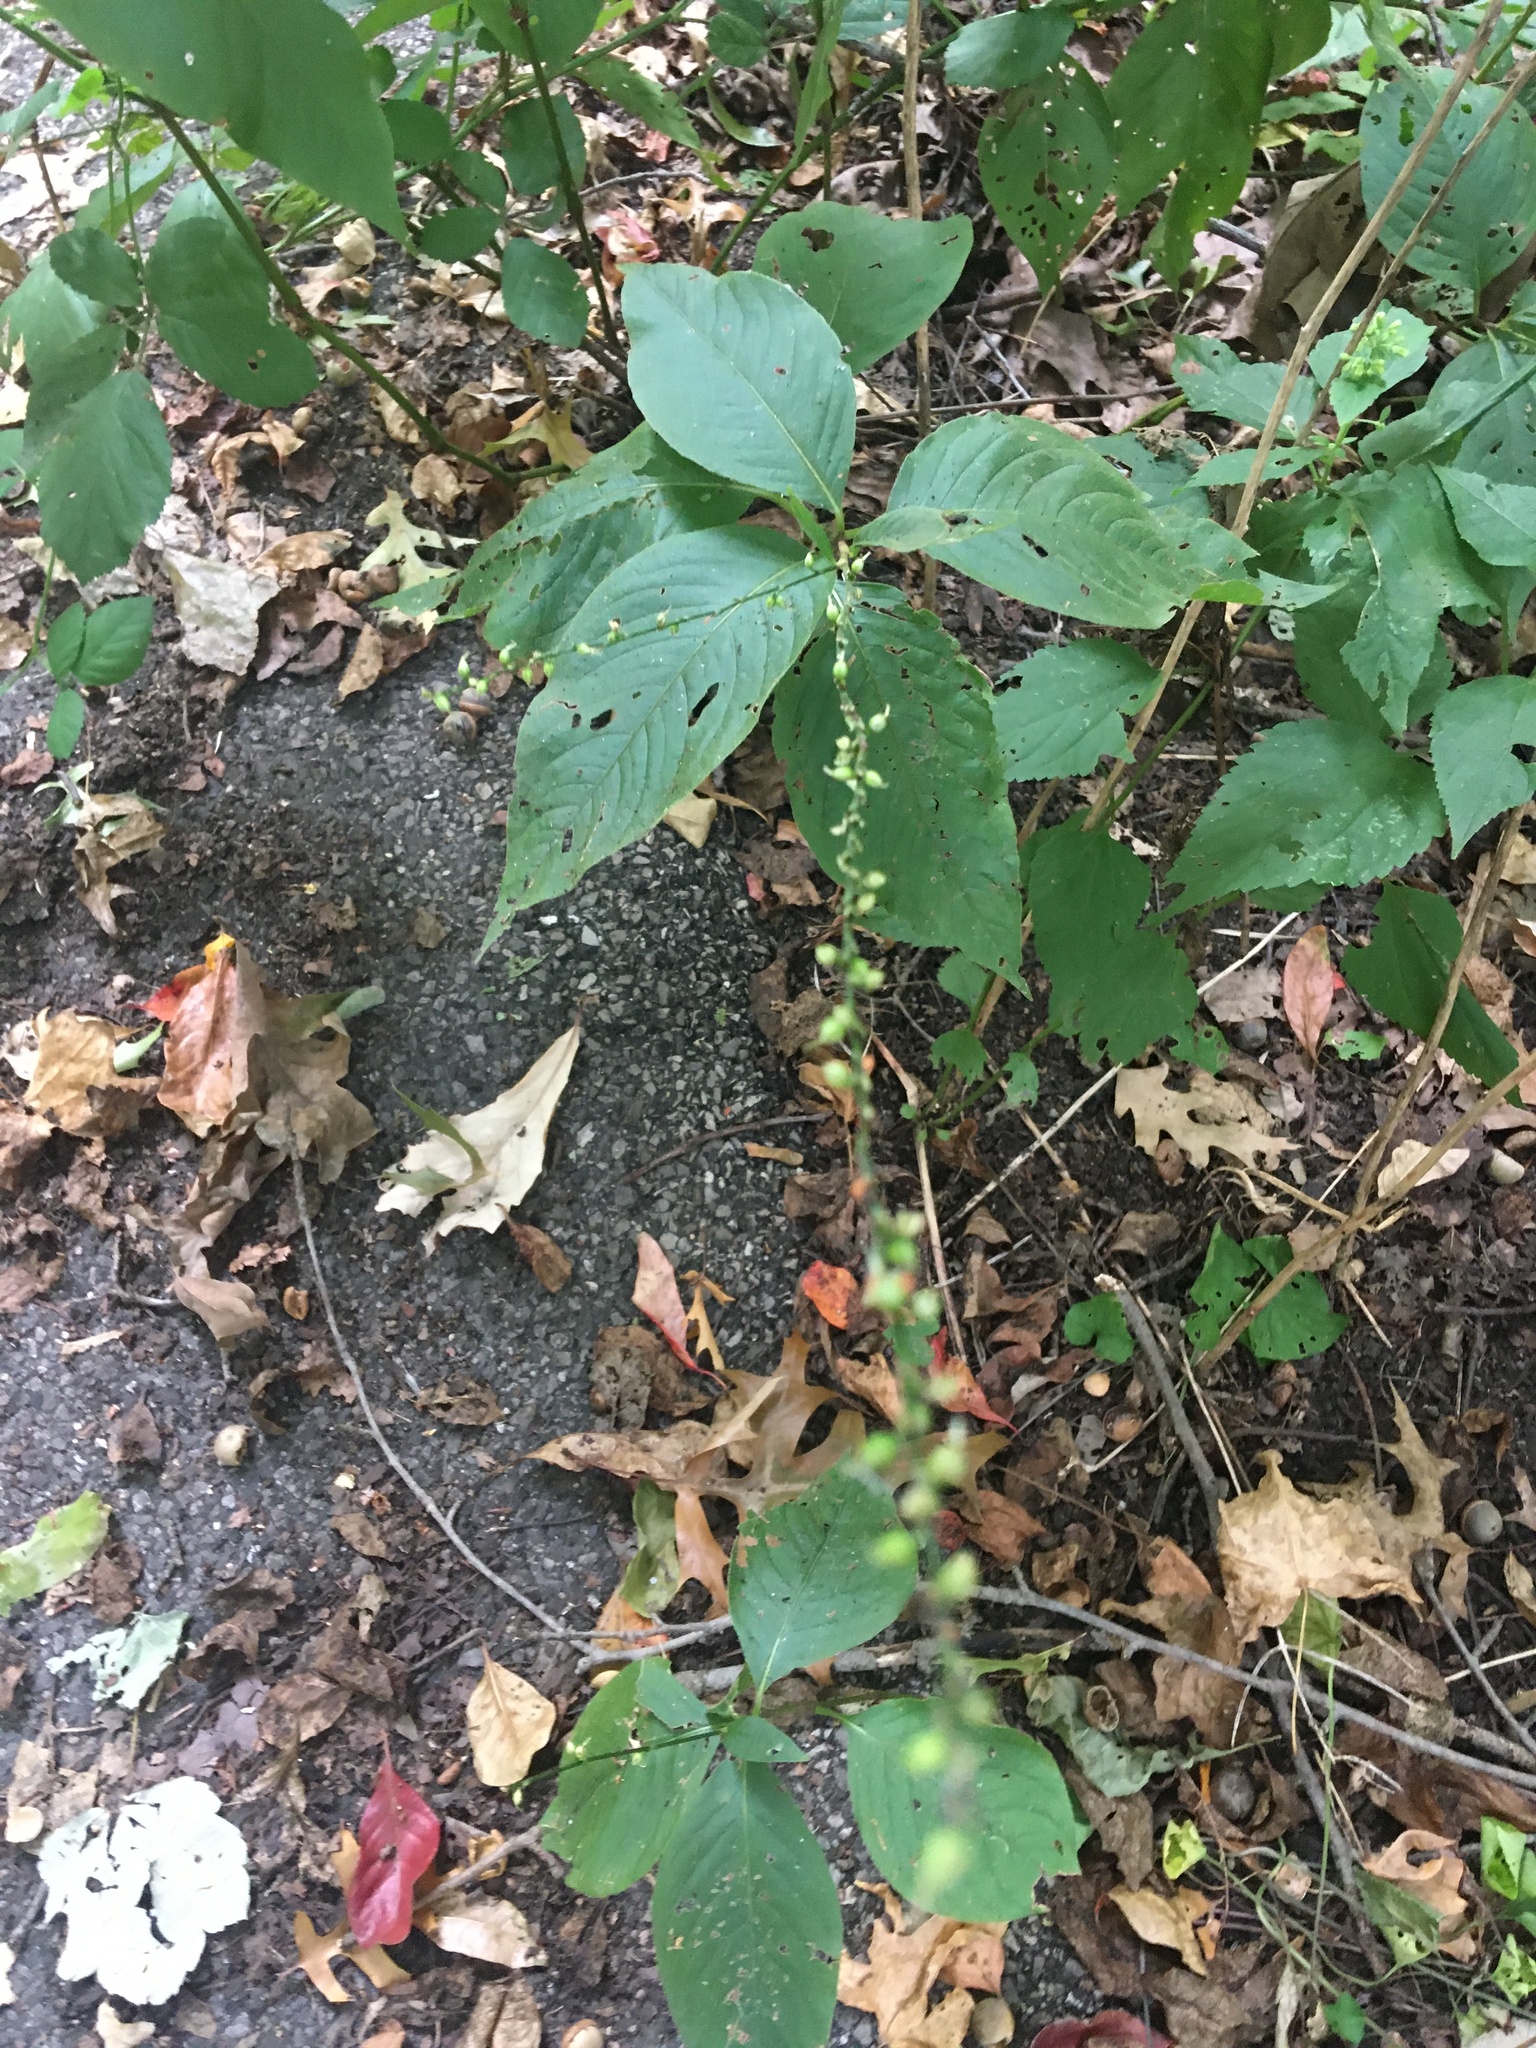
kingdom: Plantae
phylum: Tracheophyta
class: Magnoliopsida
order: Caryophyllales
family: Polygonaceae
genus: Persicaria
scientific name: Persicaria virginiana
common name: Jumpseed
